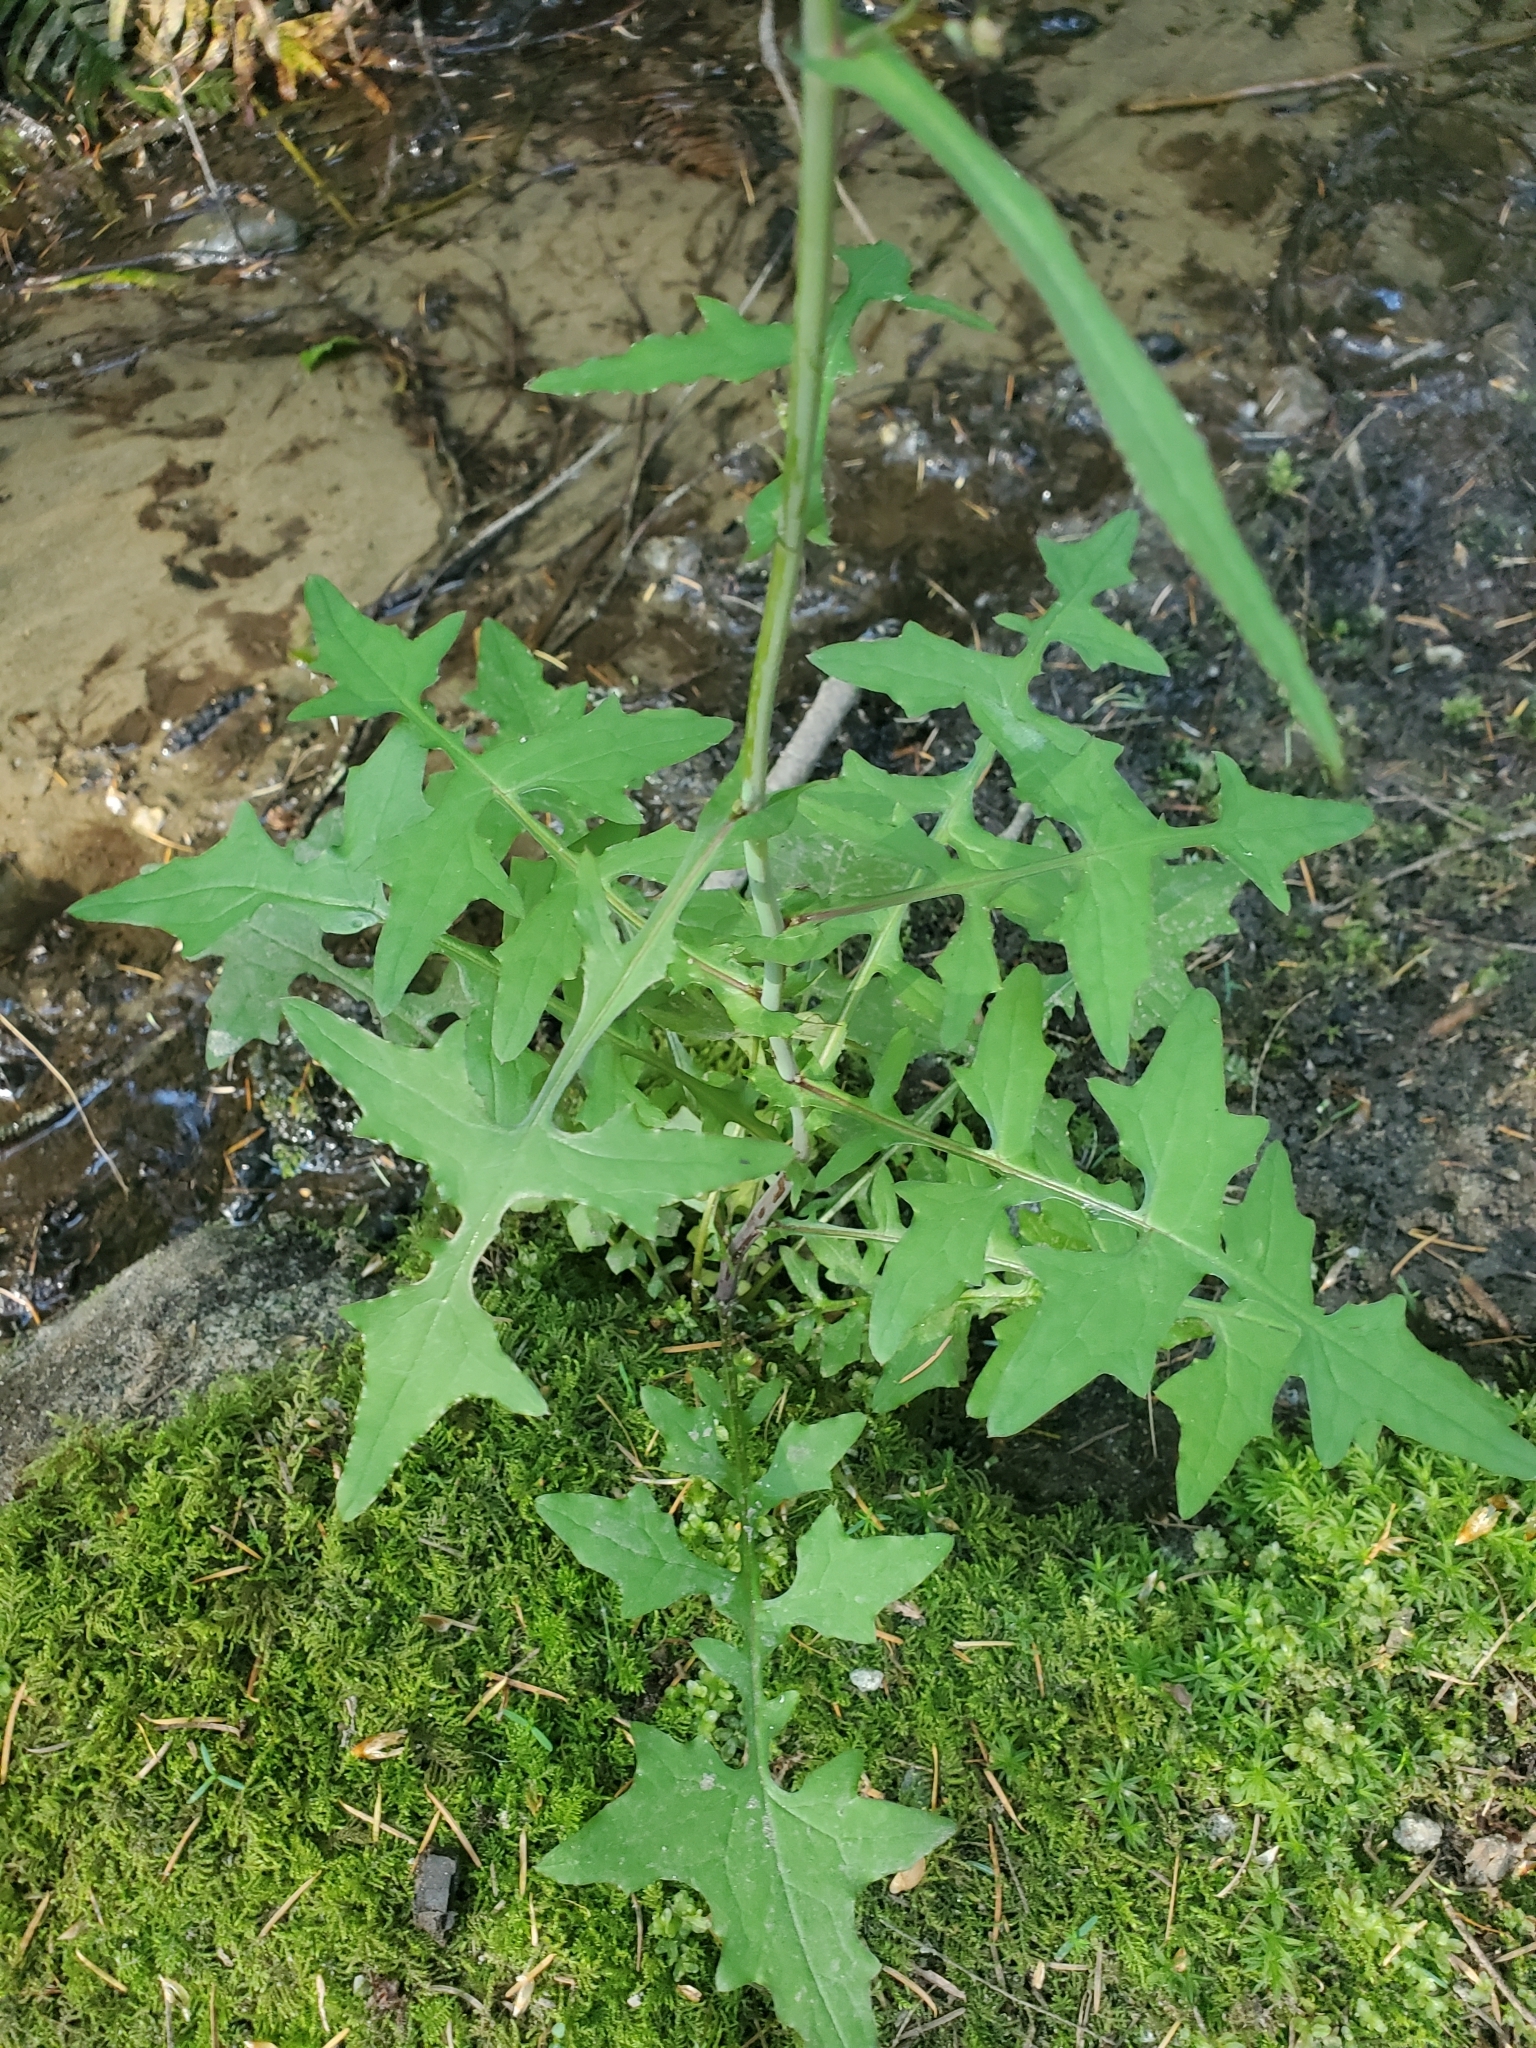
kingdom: Plantae
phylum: Tracheophyta
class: Magnoliopsida
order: Asterales
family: Asteraceae
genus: Mycelis
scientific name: Mycelis muralis
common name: Wall lettuce
